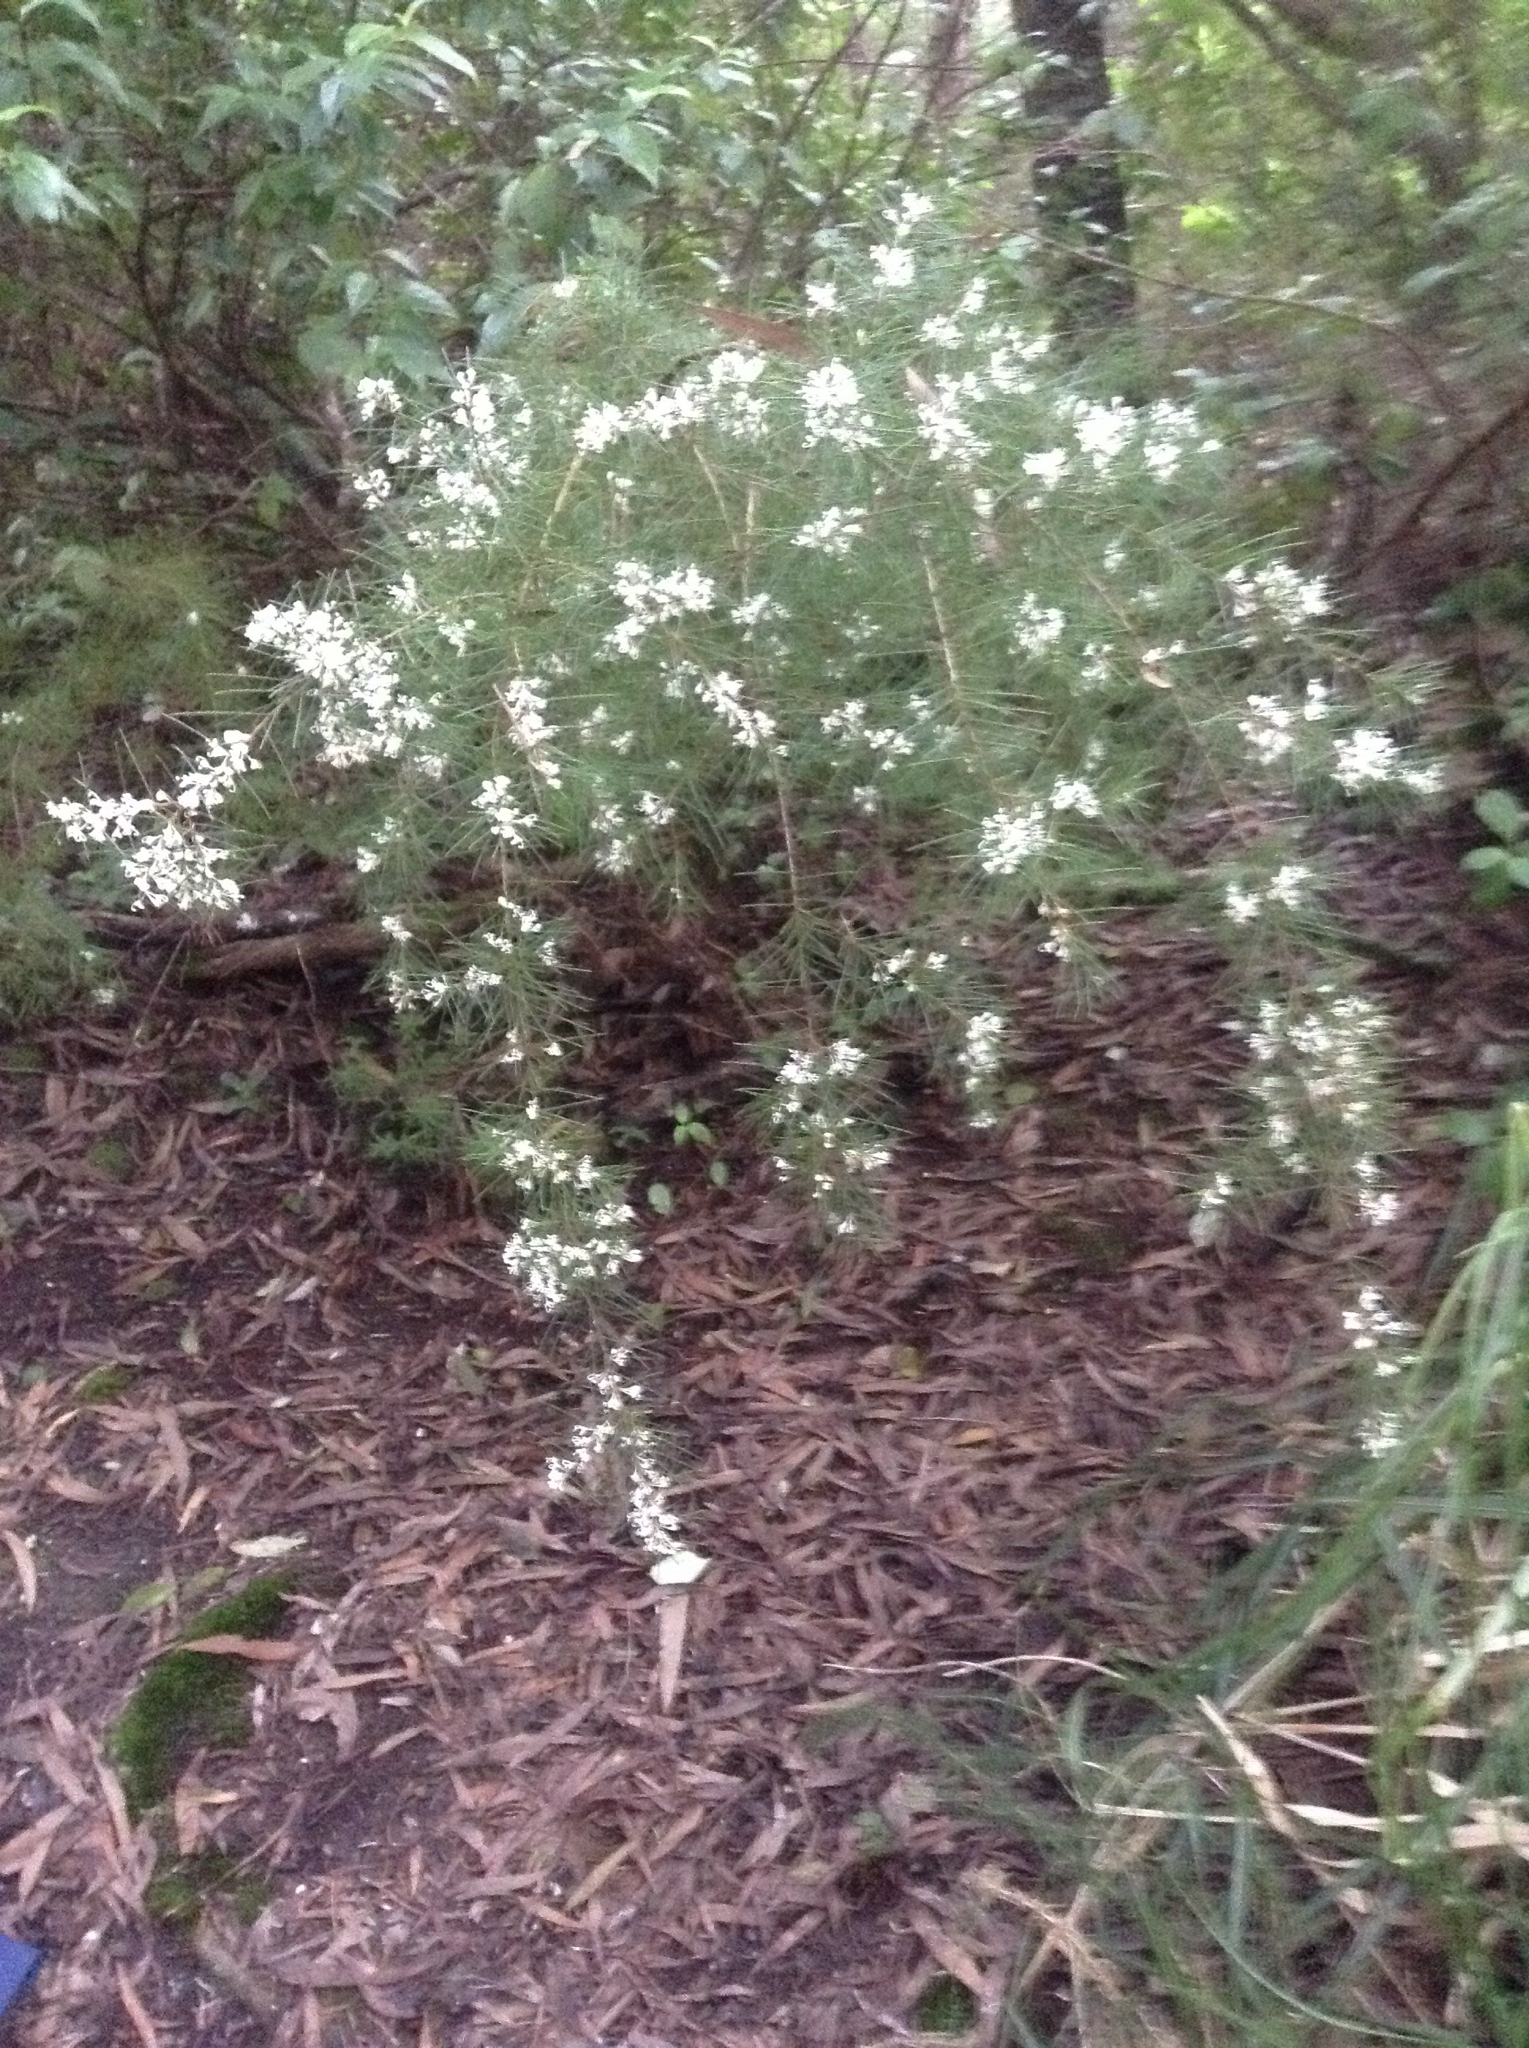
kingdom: Plantae
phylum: Tracheophyta
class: Magnoliopsida
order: Proteales
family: Proteaceae
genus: Hakea
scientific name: Hakea sericea
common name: Needle bush
